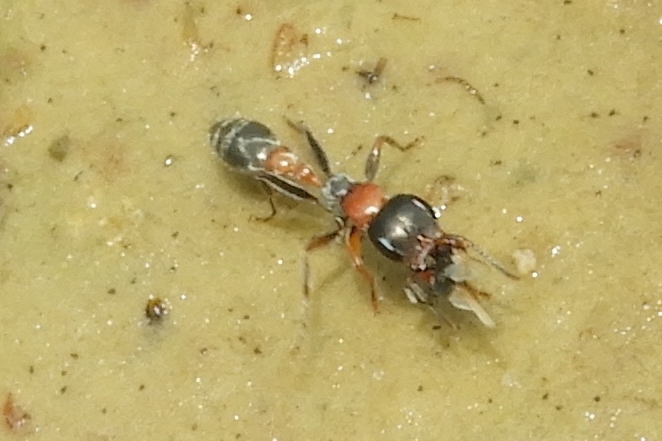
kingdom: Animalia
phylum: Arthropoda
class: Insecta
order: Hymenoptera
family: Formicidae
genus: Pseudomyrmex
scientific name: Pseudomyrmex gracilis
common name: Graceful twig ant
